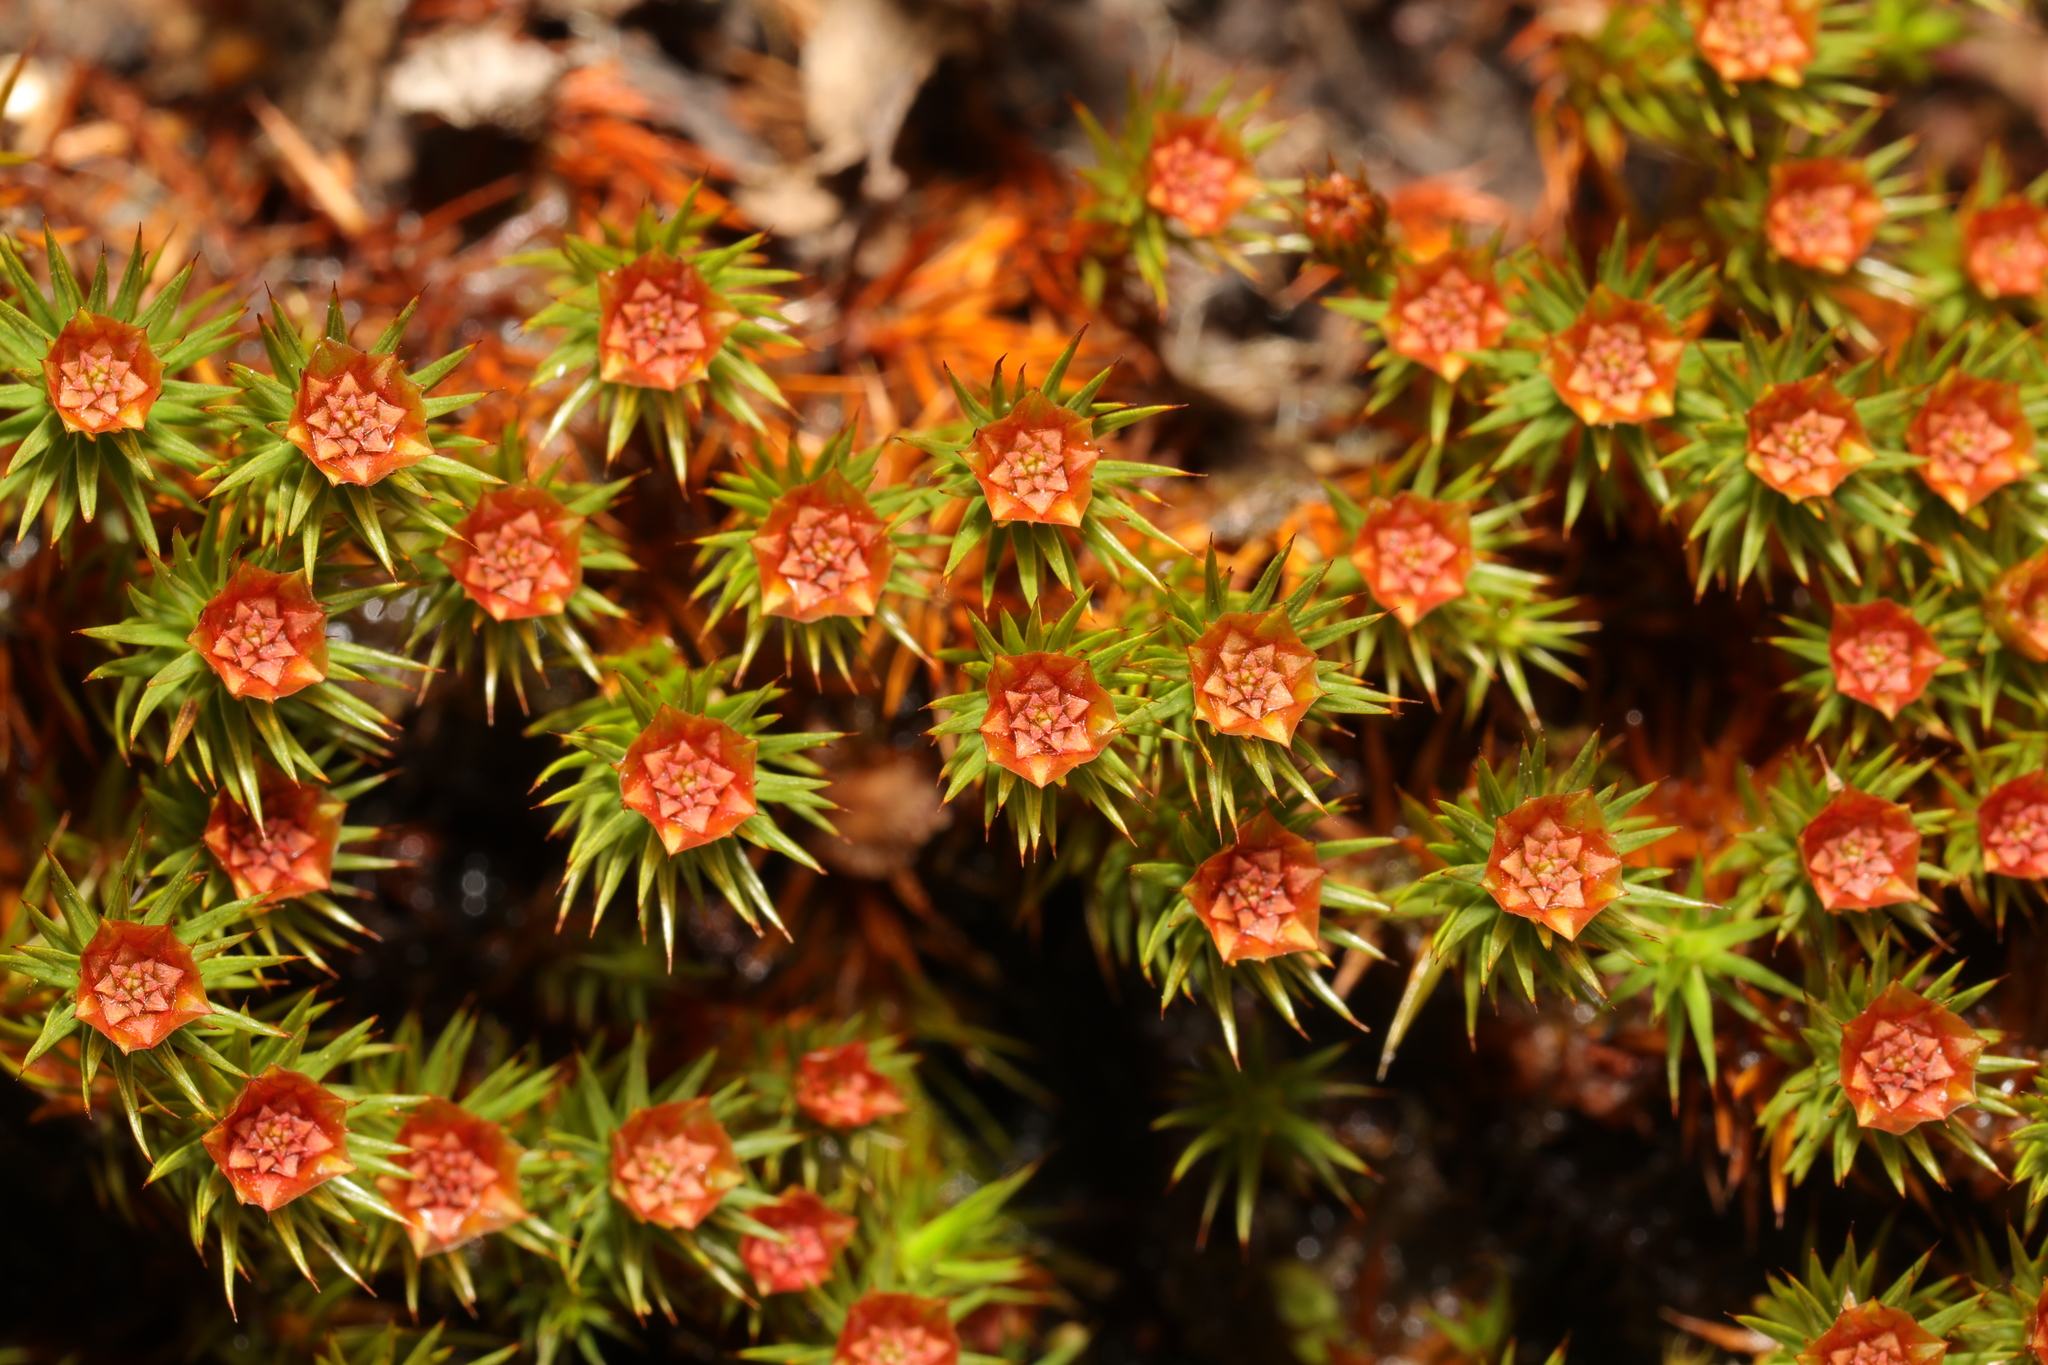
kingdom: Plantae
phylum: Bryophyta
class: Polytrichopsida
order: Polytrichales
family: Polytrichaceae
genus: Polytrichum
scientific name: Polytrichum juniperinum
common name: Juniper haircap moss
